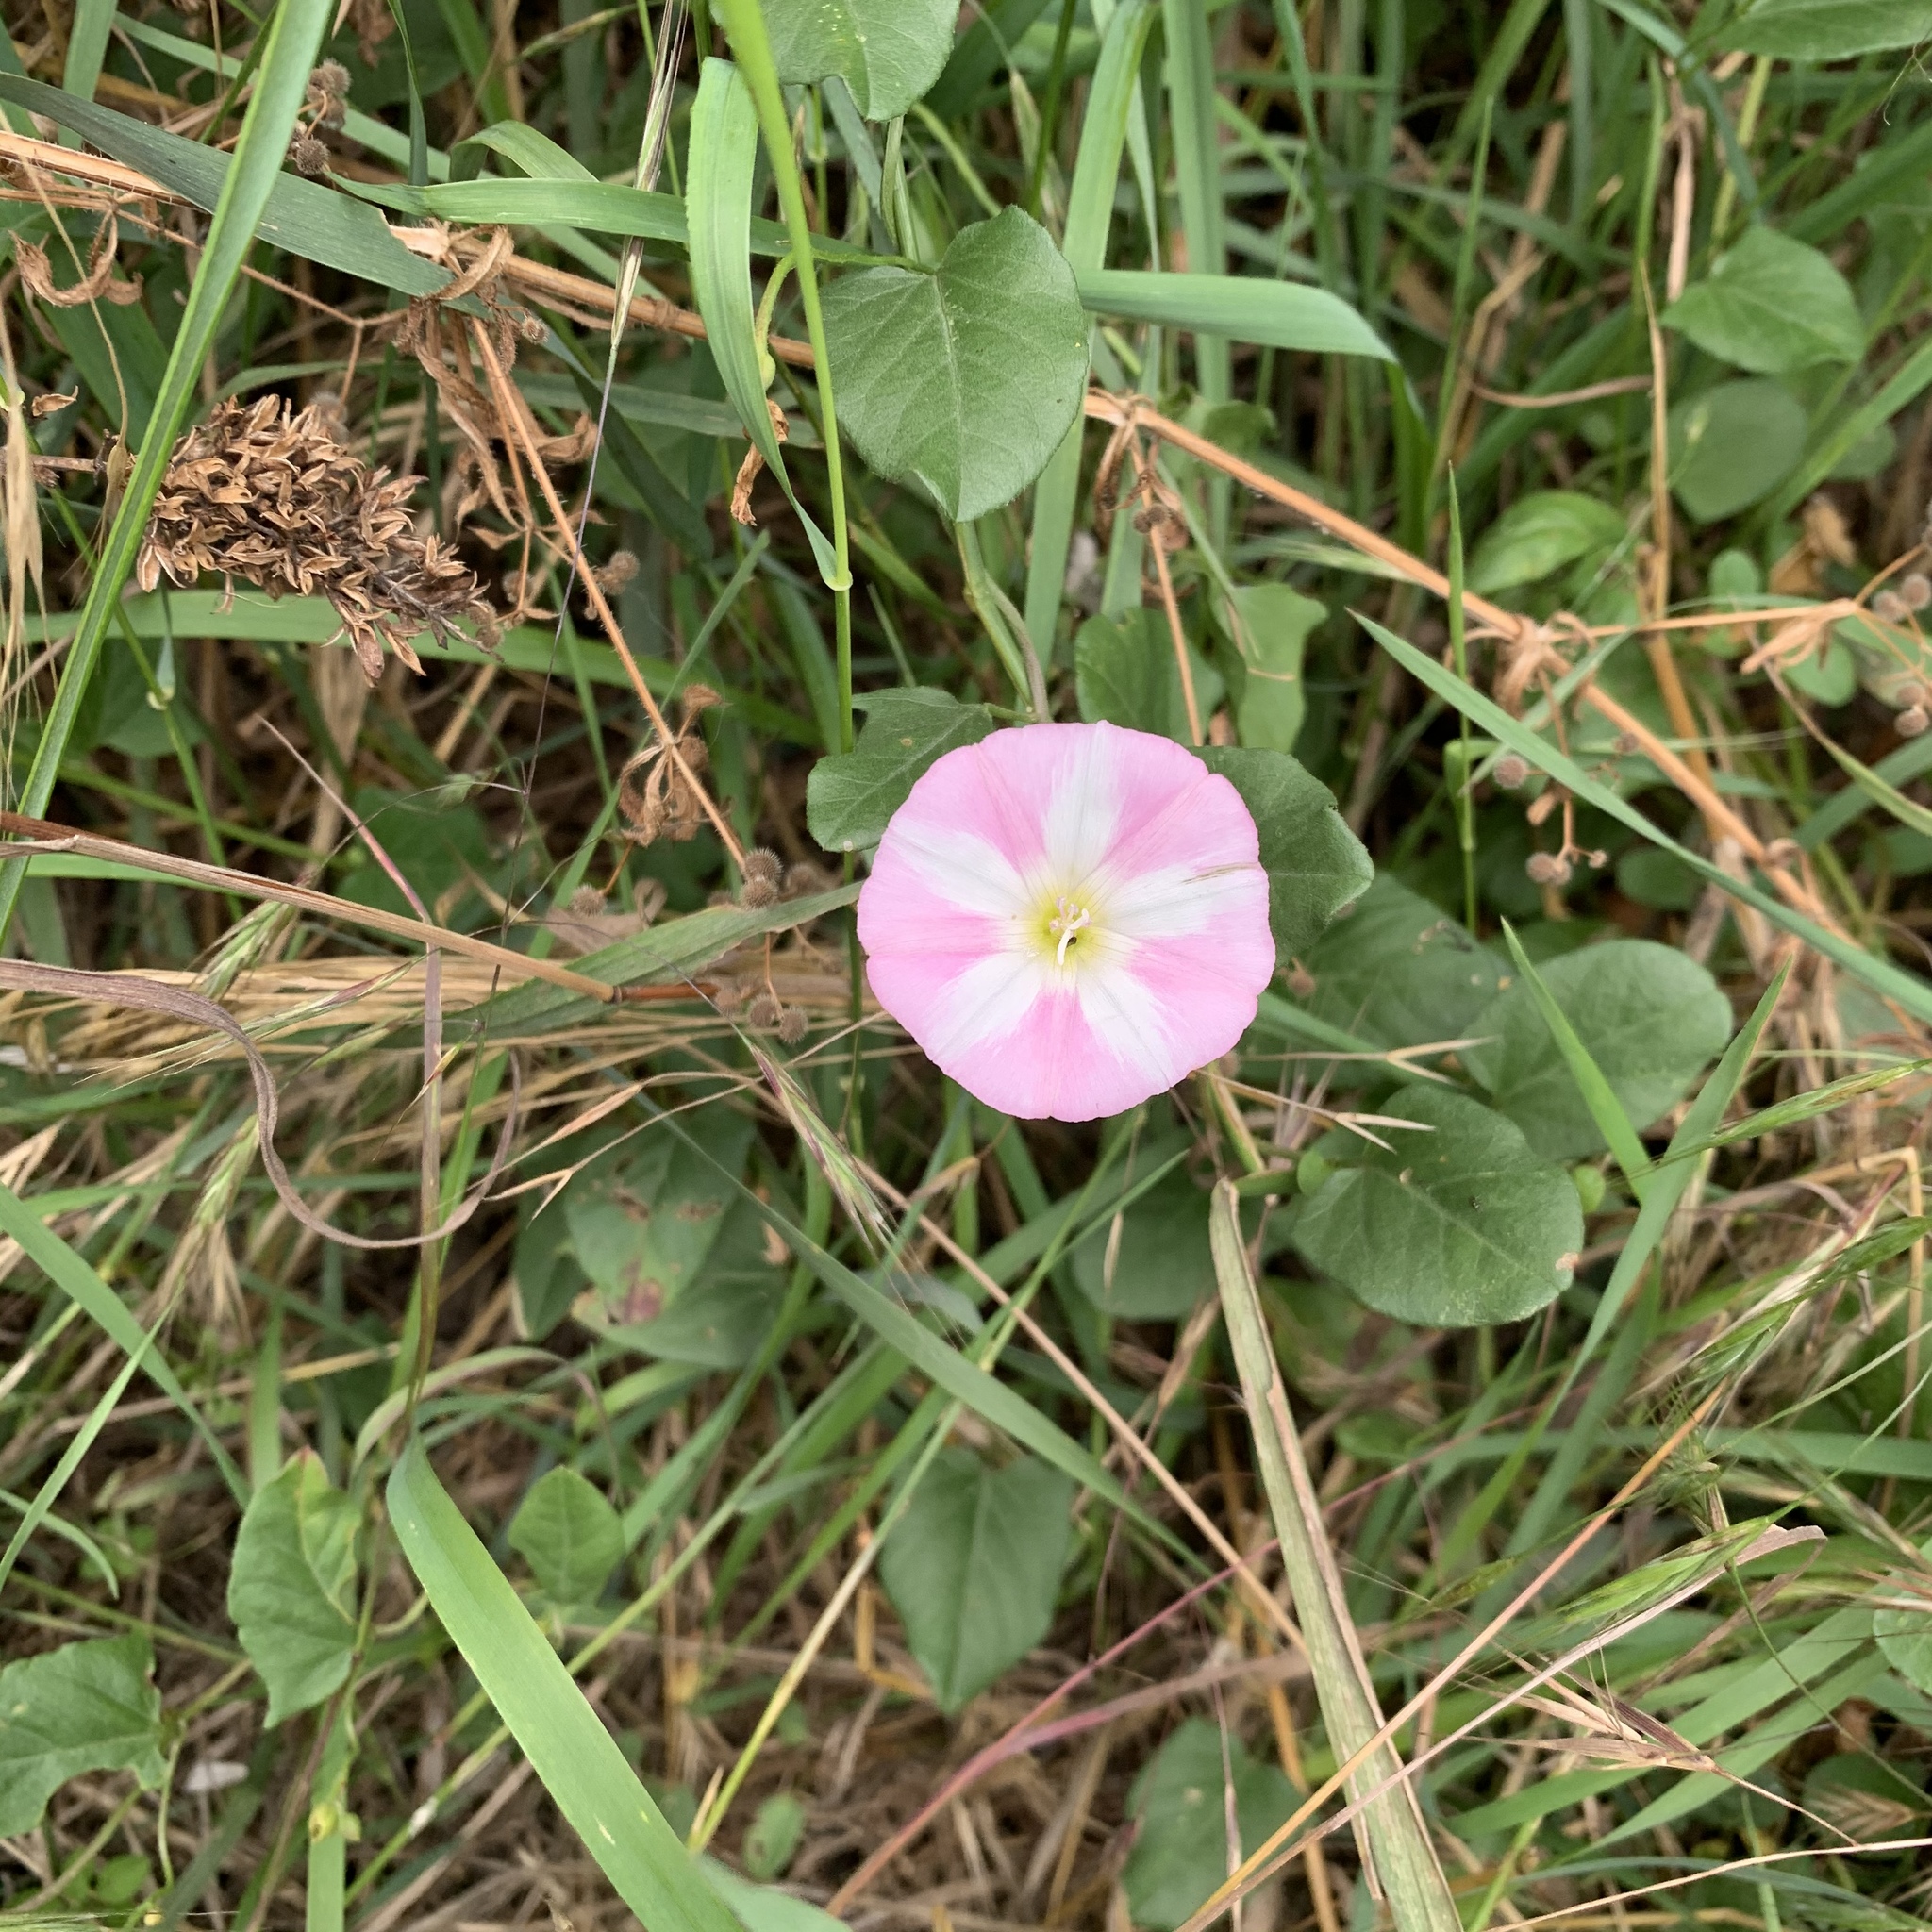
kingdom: Plantae
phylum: Tracheophyta
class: Magnoliopsida
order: Solanales
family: Convolvulaceae
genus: Convolvulus
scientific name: Convolvulus arvensis
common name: Field bindweed
